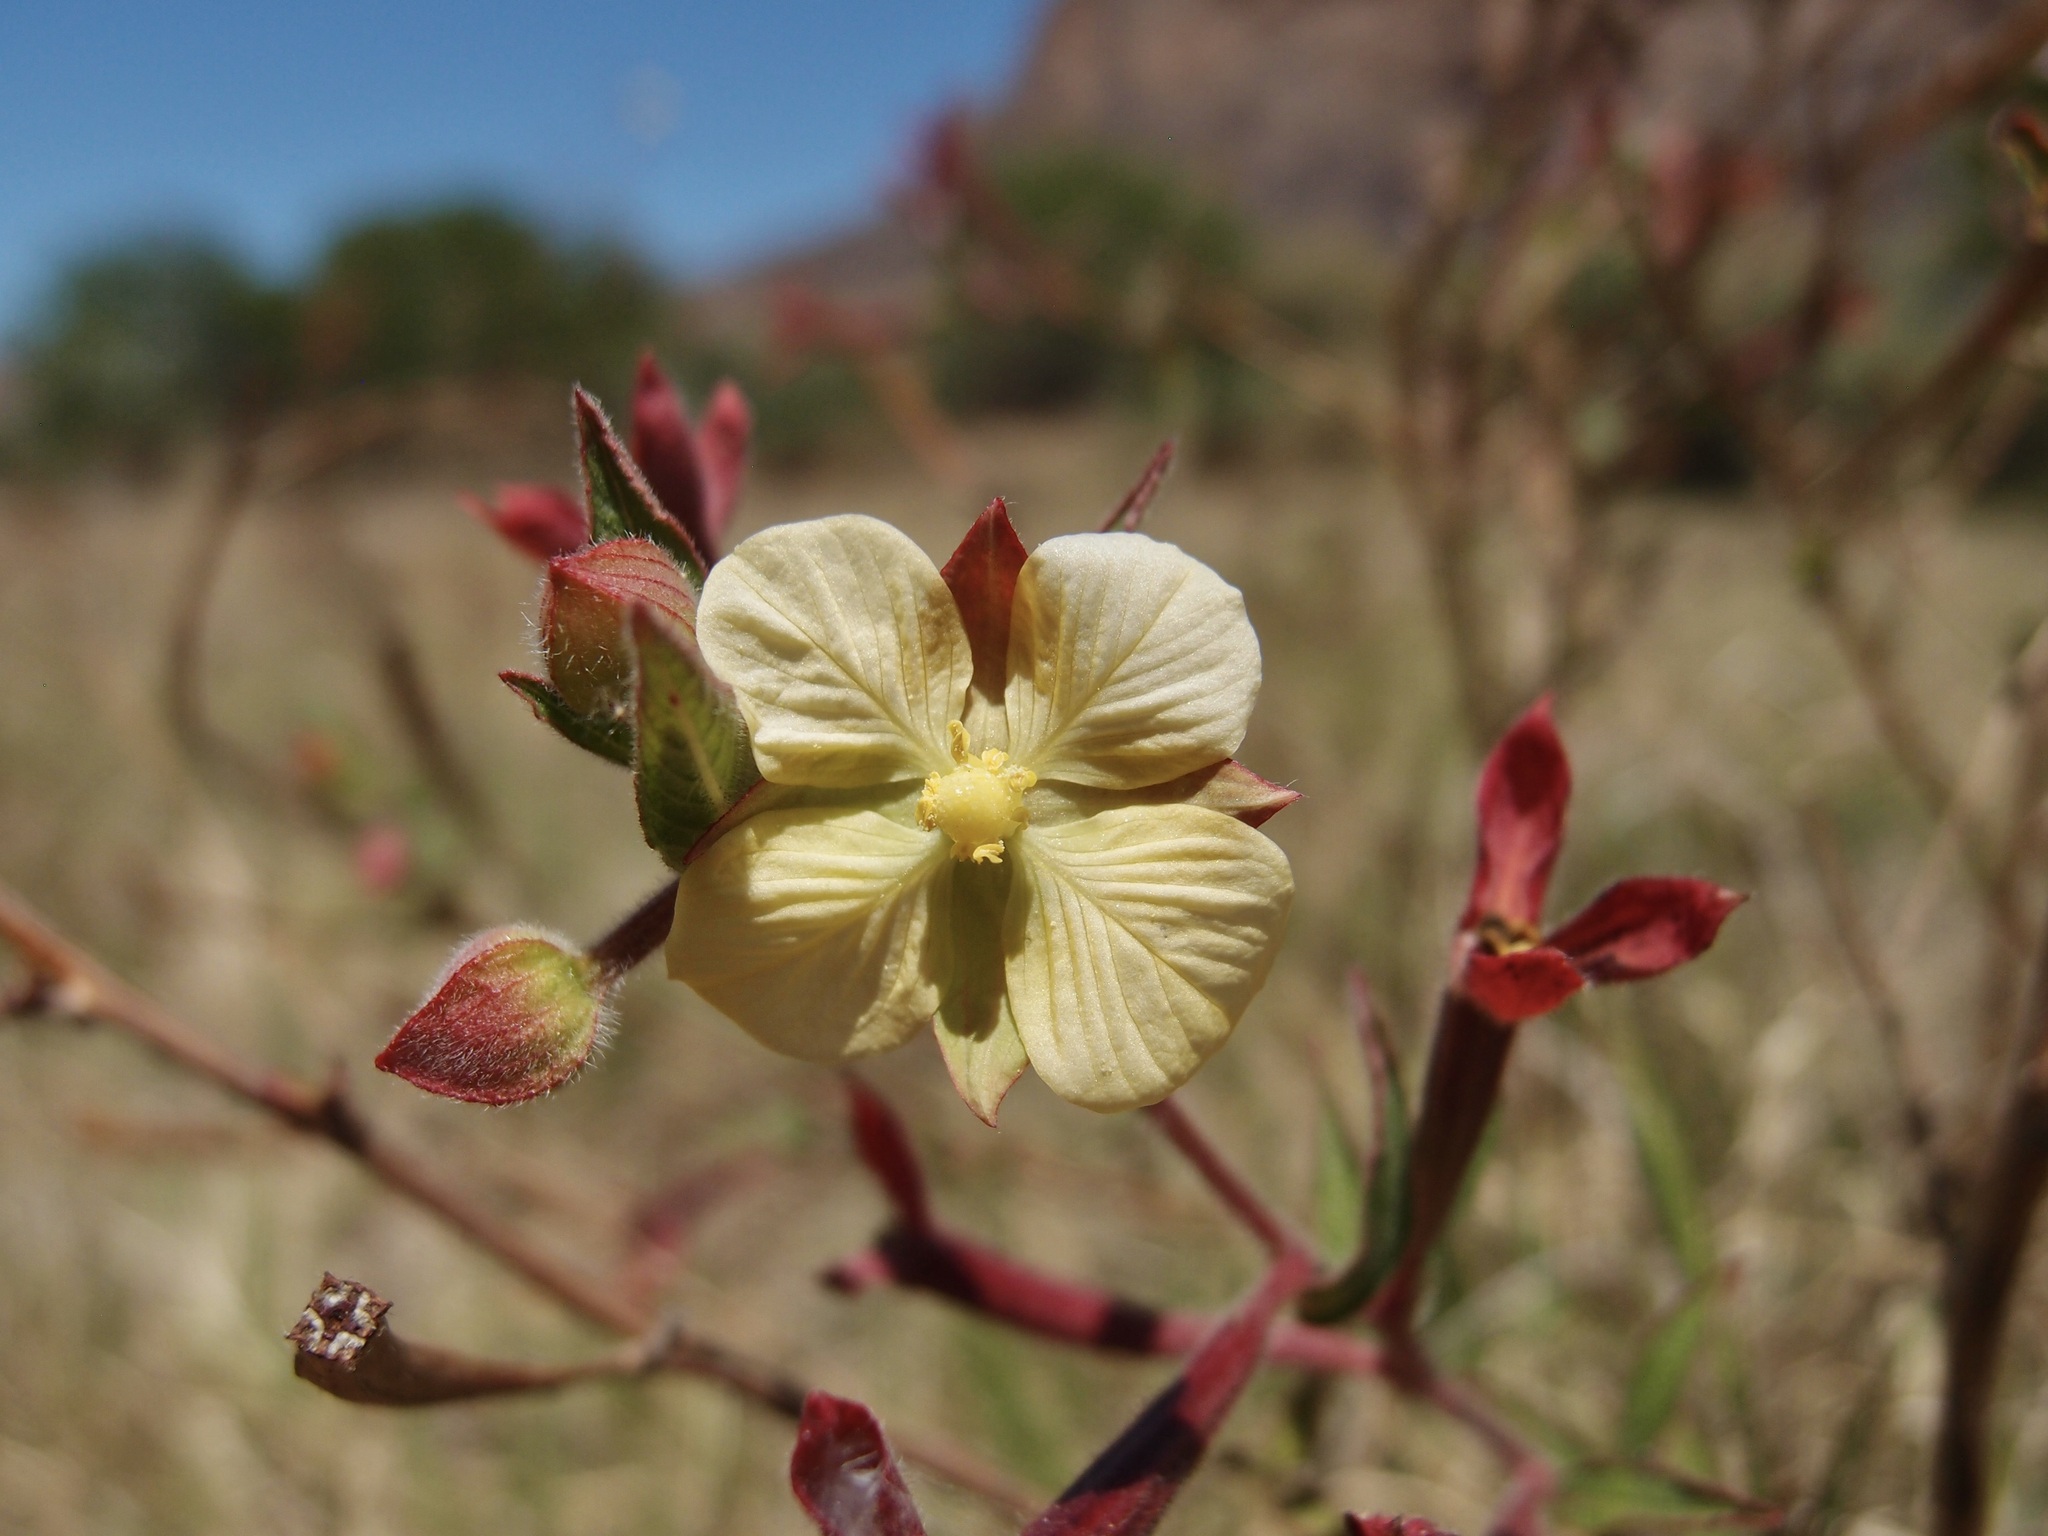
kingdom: Plantae
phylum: Tracheophyta
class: Magnoliopsida
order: Myrtales
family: Onagraceae
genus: Ludwigia
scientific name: Ludwigia octovalvis
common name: Water-primrose
